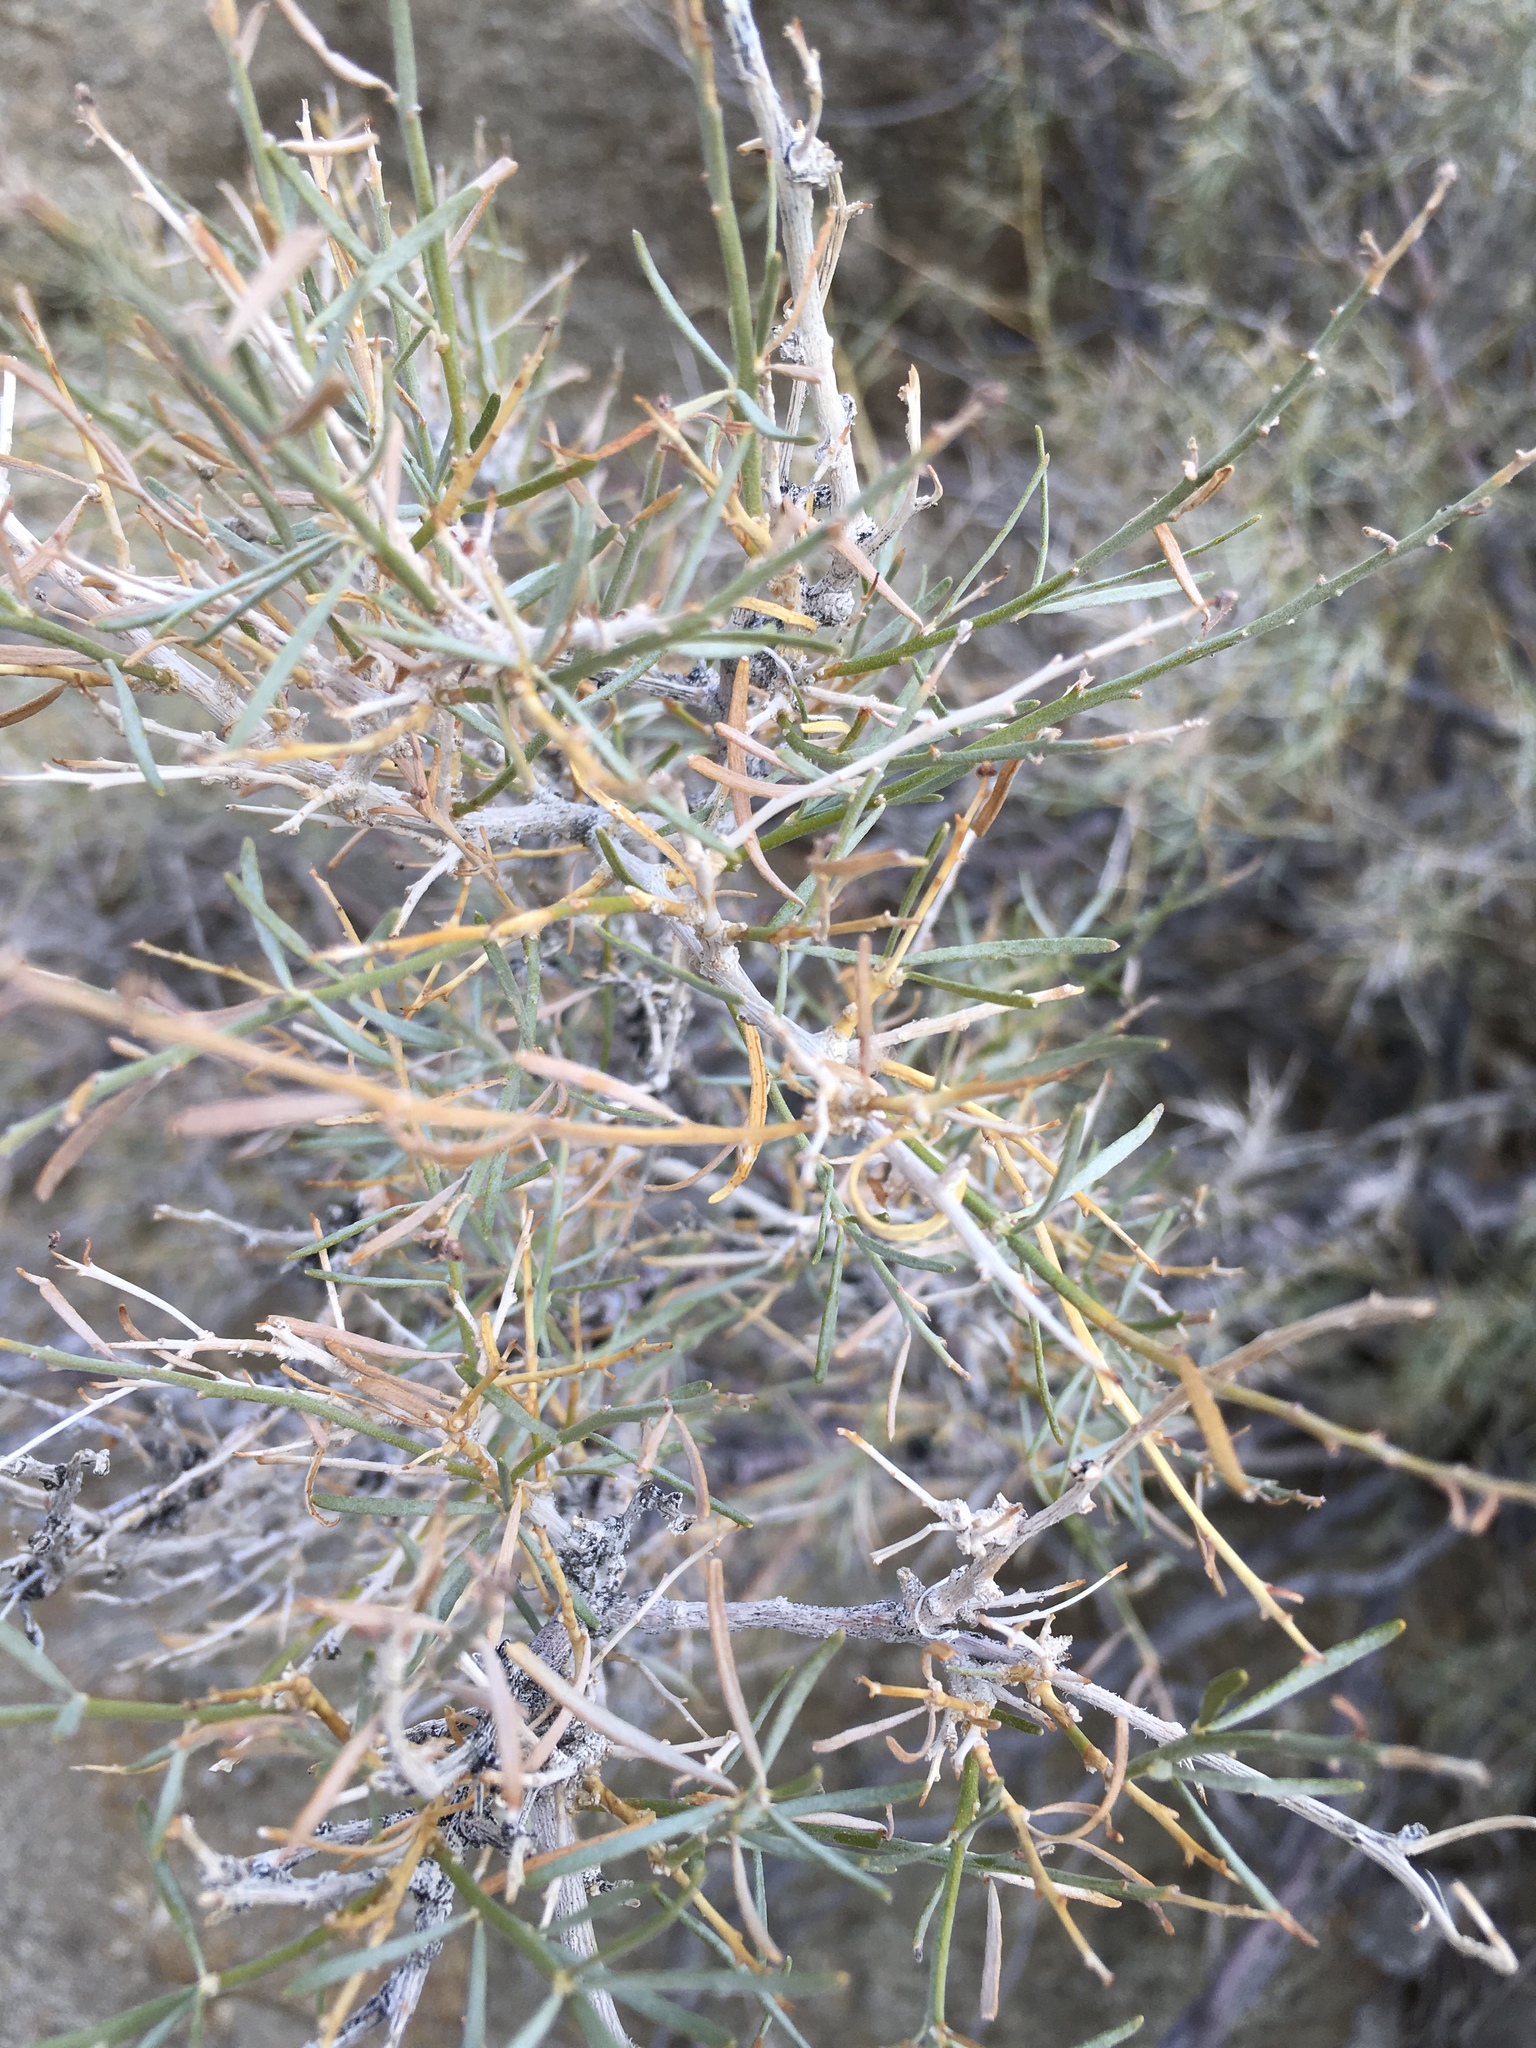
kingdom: Plantae
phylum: Tracheophyta
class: Magnoliopsida
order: Fabales
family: Fabaceae
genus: Psorothamnus
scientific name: Psorothamnus schottii
